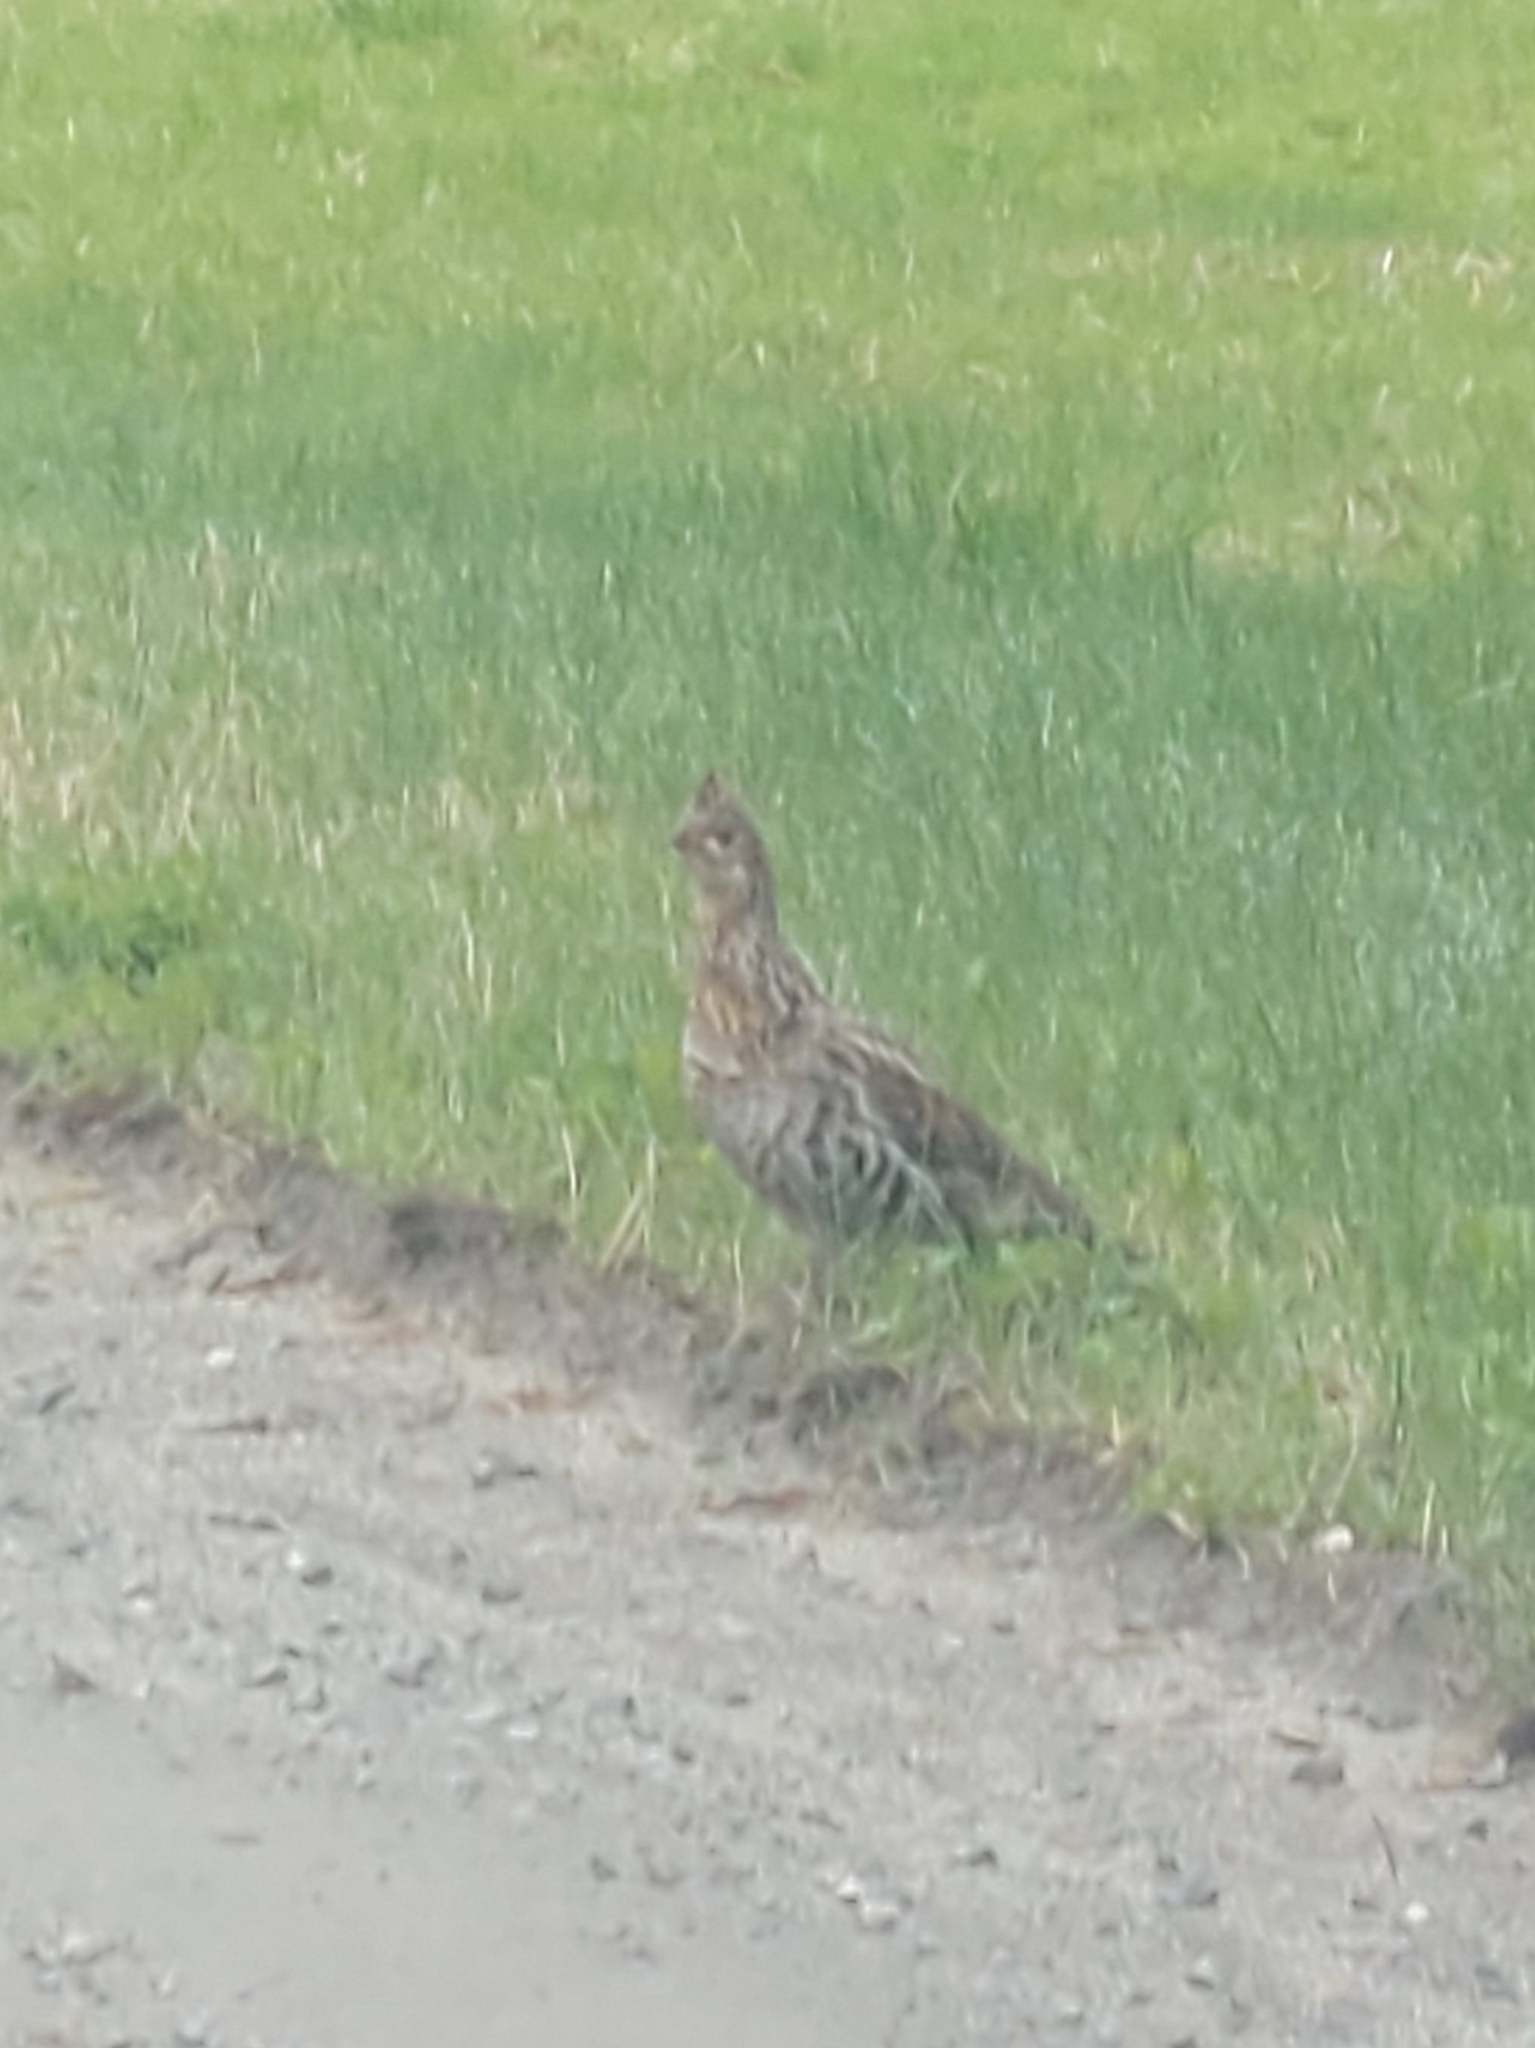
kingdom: Animalia
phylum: Chordata
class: Aves
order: Galliformes
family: Phasianidae
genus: Bonasa
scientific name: Bonasa umbellus
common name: Ruffed grouse
